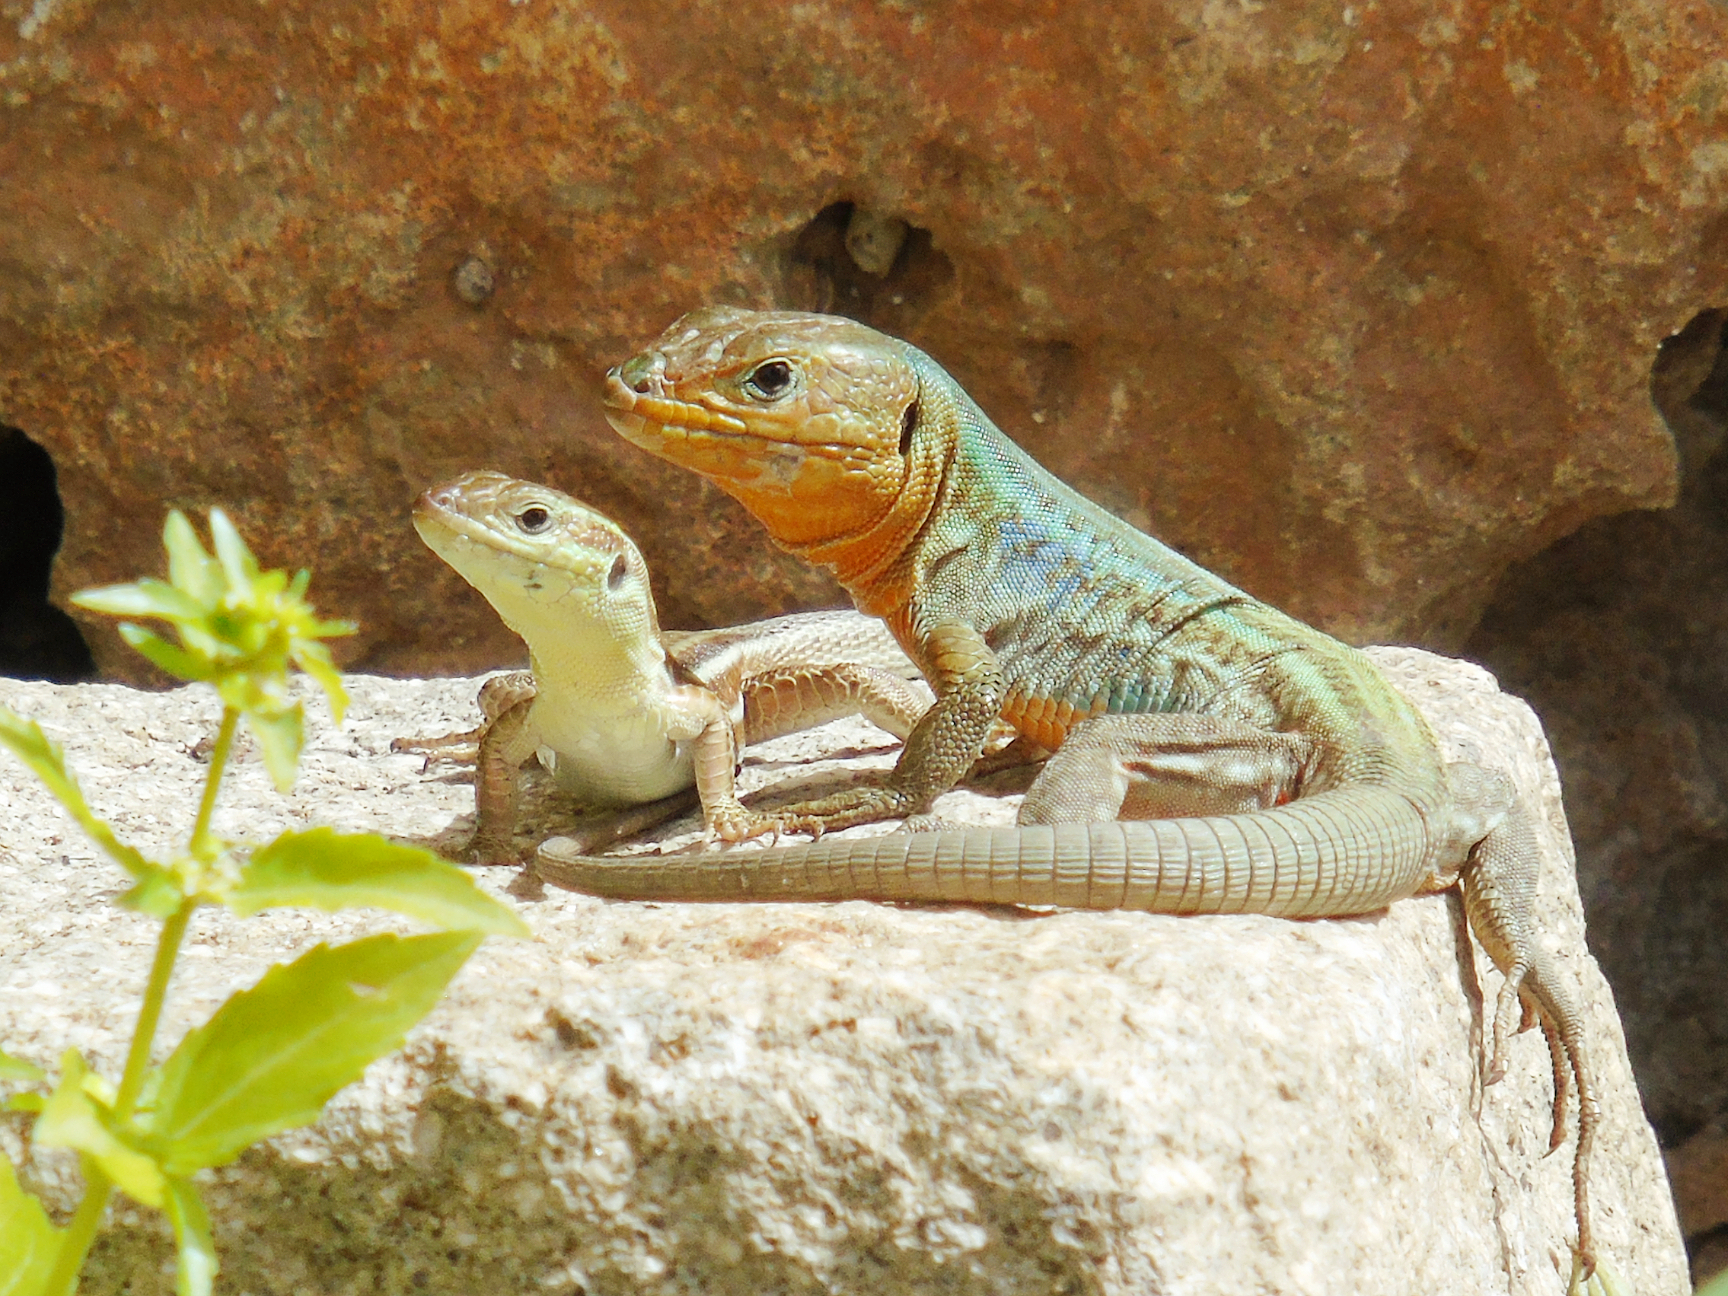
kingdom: Animalia
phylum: Chordata
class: Squamata
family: Lacertidae
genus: Podarcis
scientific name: Podarcis peloponnesiacus
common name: Peloponnese wall lizard
